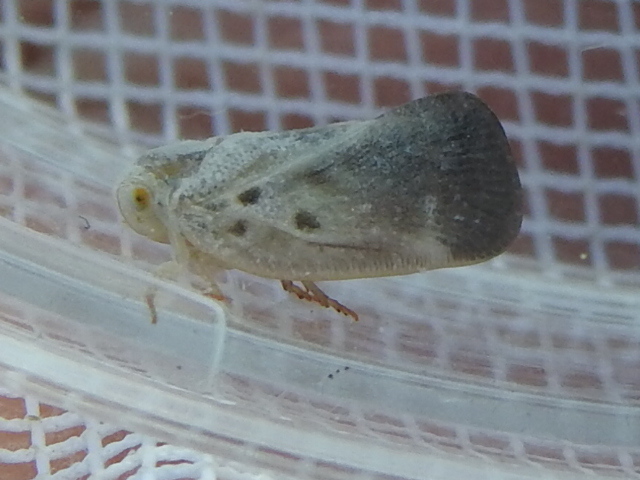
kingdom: Animalia
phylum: Arthropoda
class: Insecta
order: Hemiptera
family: Flatidae
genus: Metcalfa
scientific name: Metcalfa pruinosa
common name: Citrus flatid planthopper
